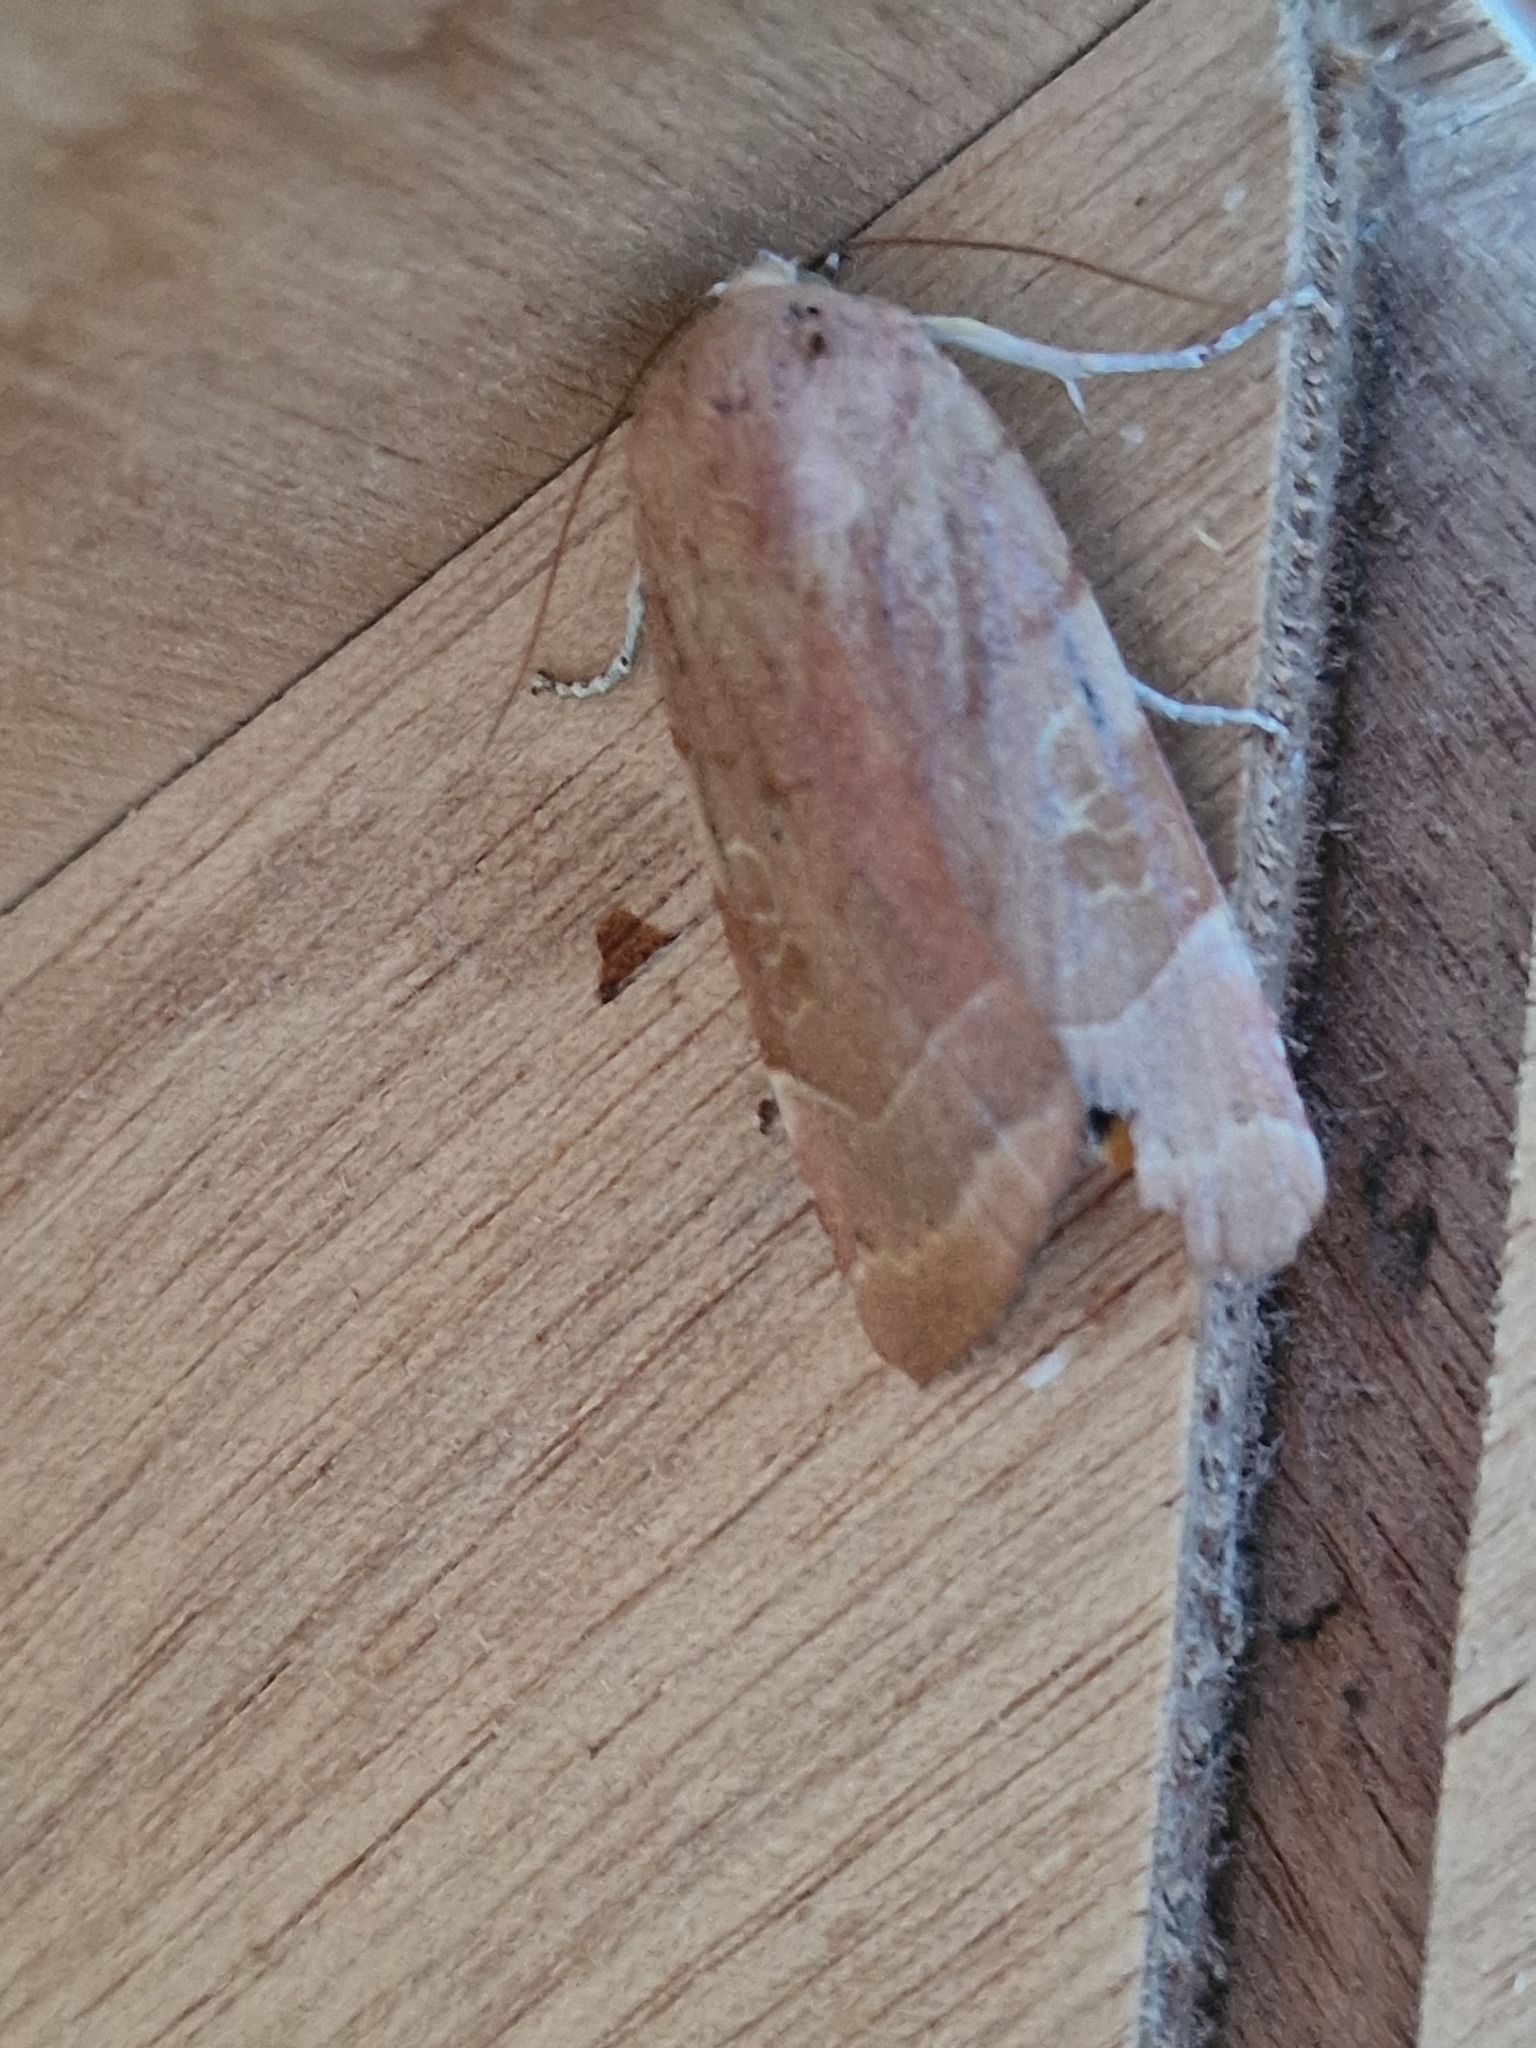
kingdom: Animalia
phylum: Arthropoda
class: Insecta
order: Lepidoptera
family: Noctuidae
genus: Noctua
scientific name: Noctua fimbriata
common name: Broad-bordered yellow underwing
